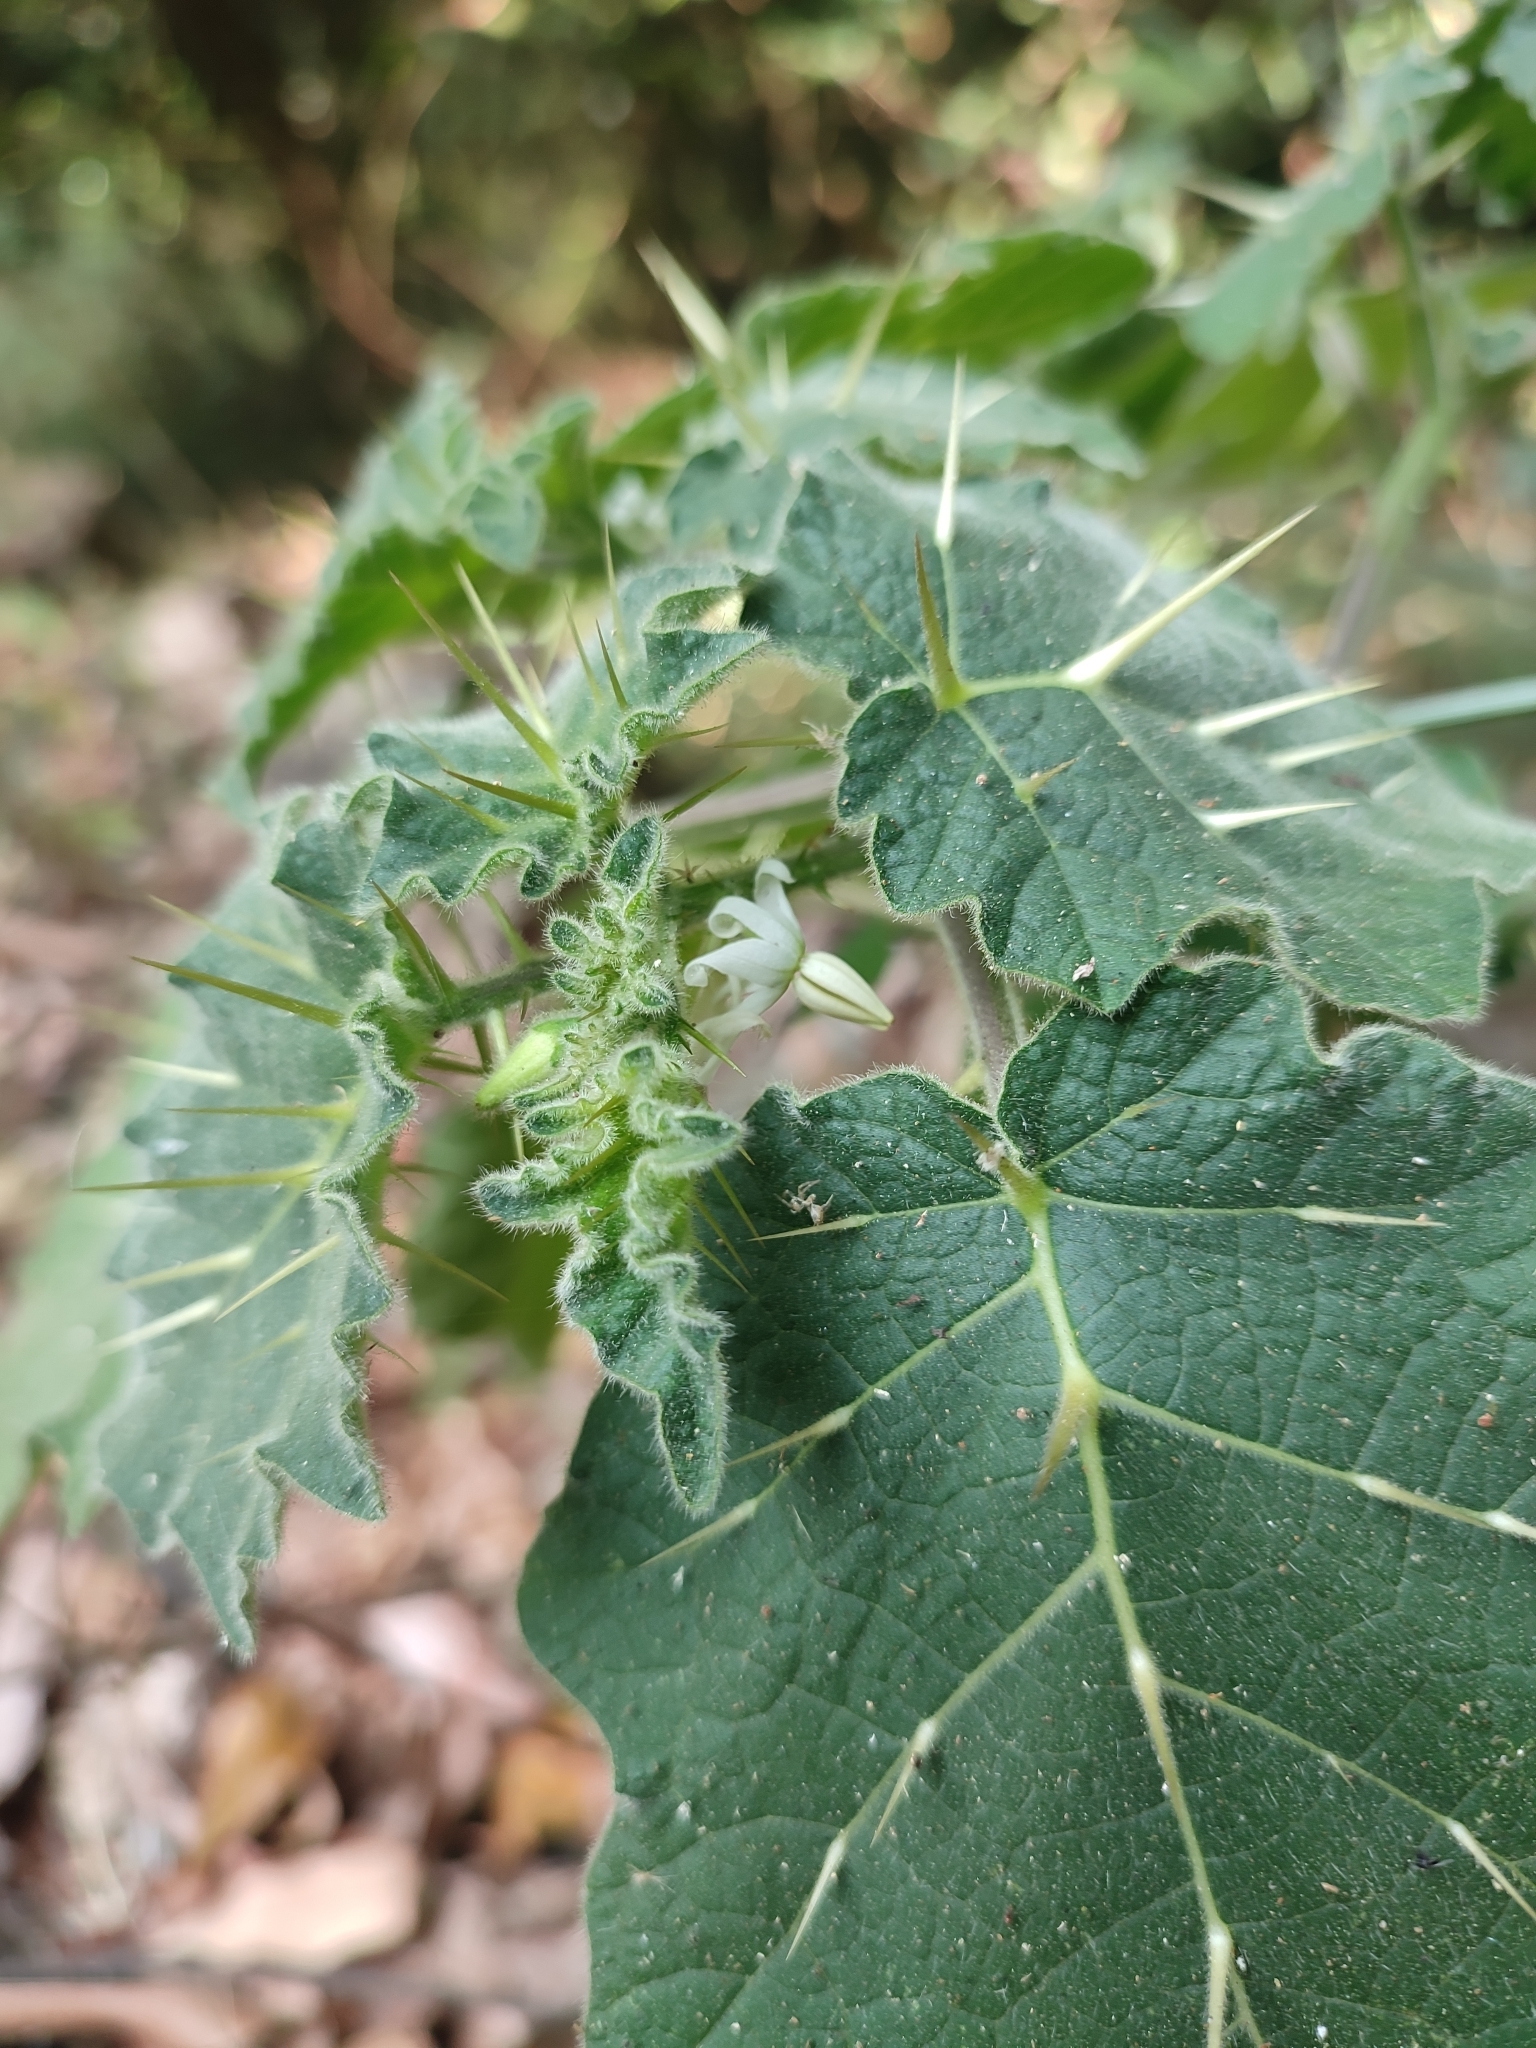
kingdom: Plantae
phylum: Tracheophyta
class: Magnoliopsida
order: Solanales
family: Solanaceae
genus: Solanum
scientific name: Solanum viarum
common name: Tropical soda apple
